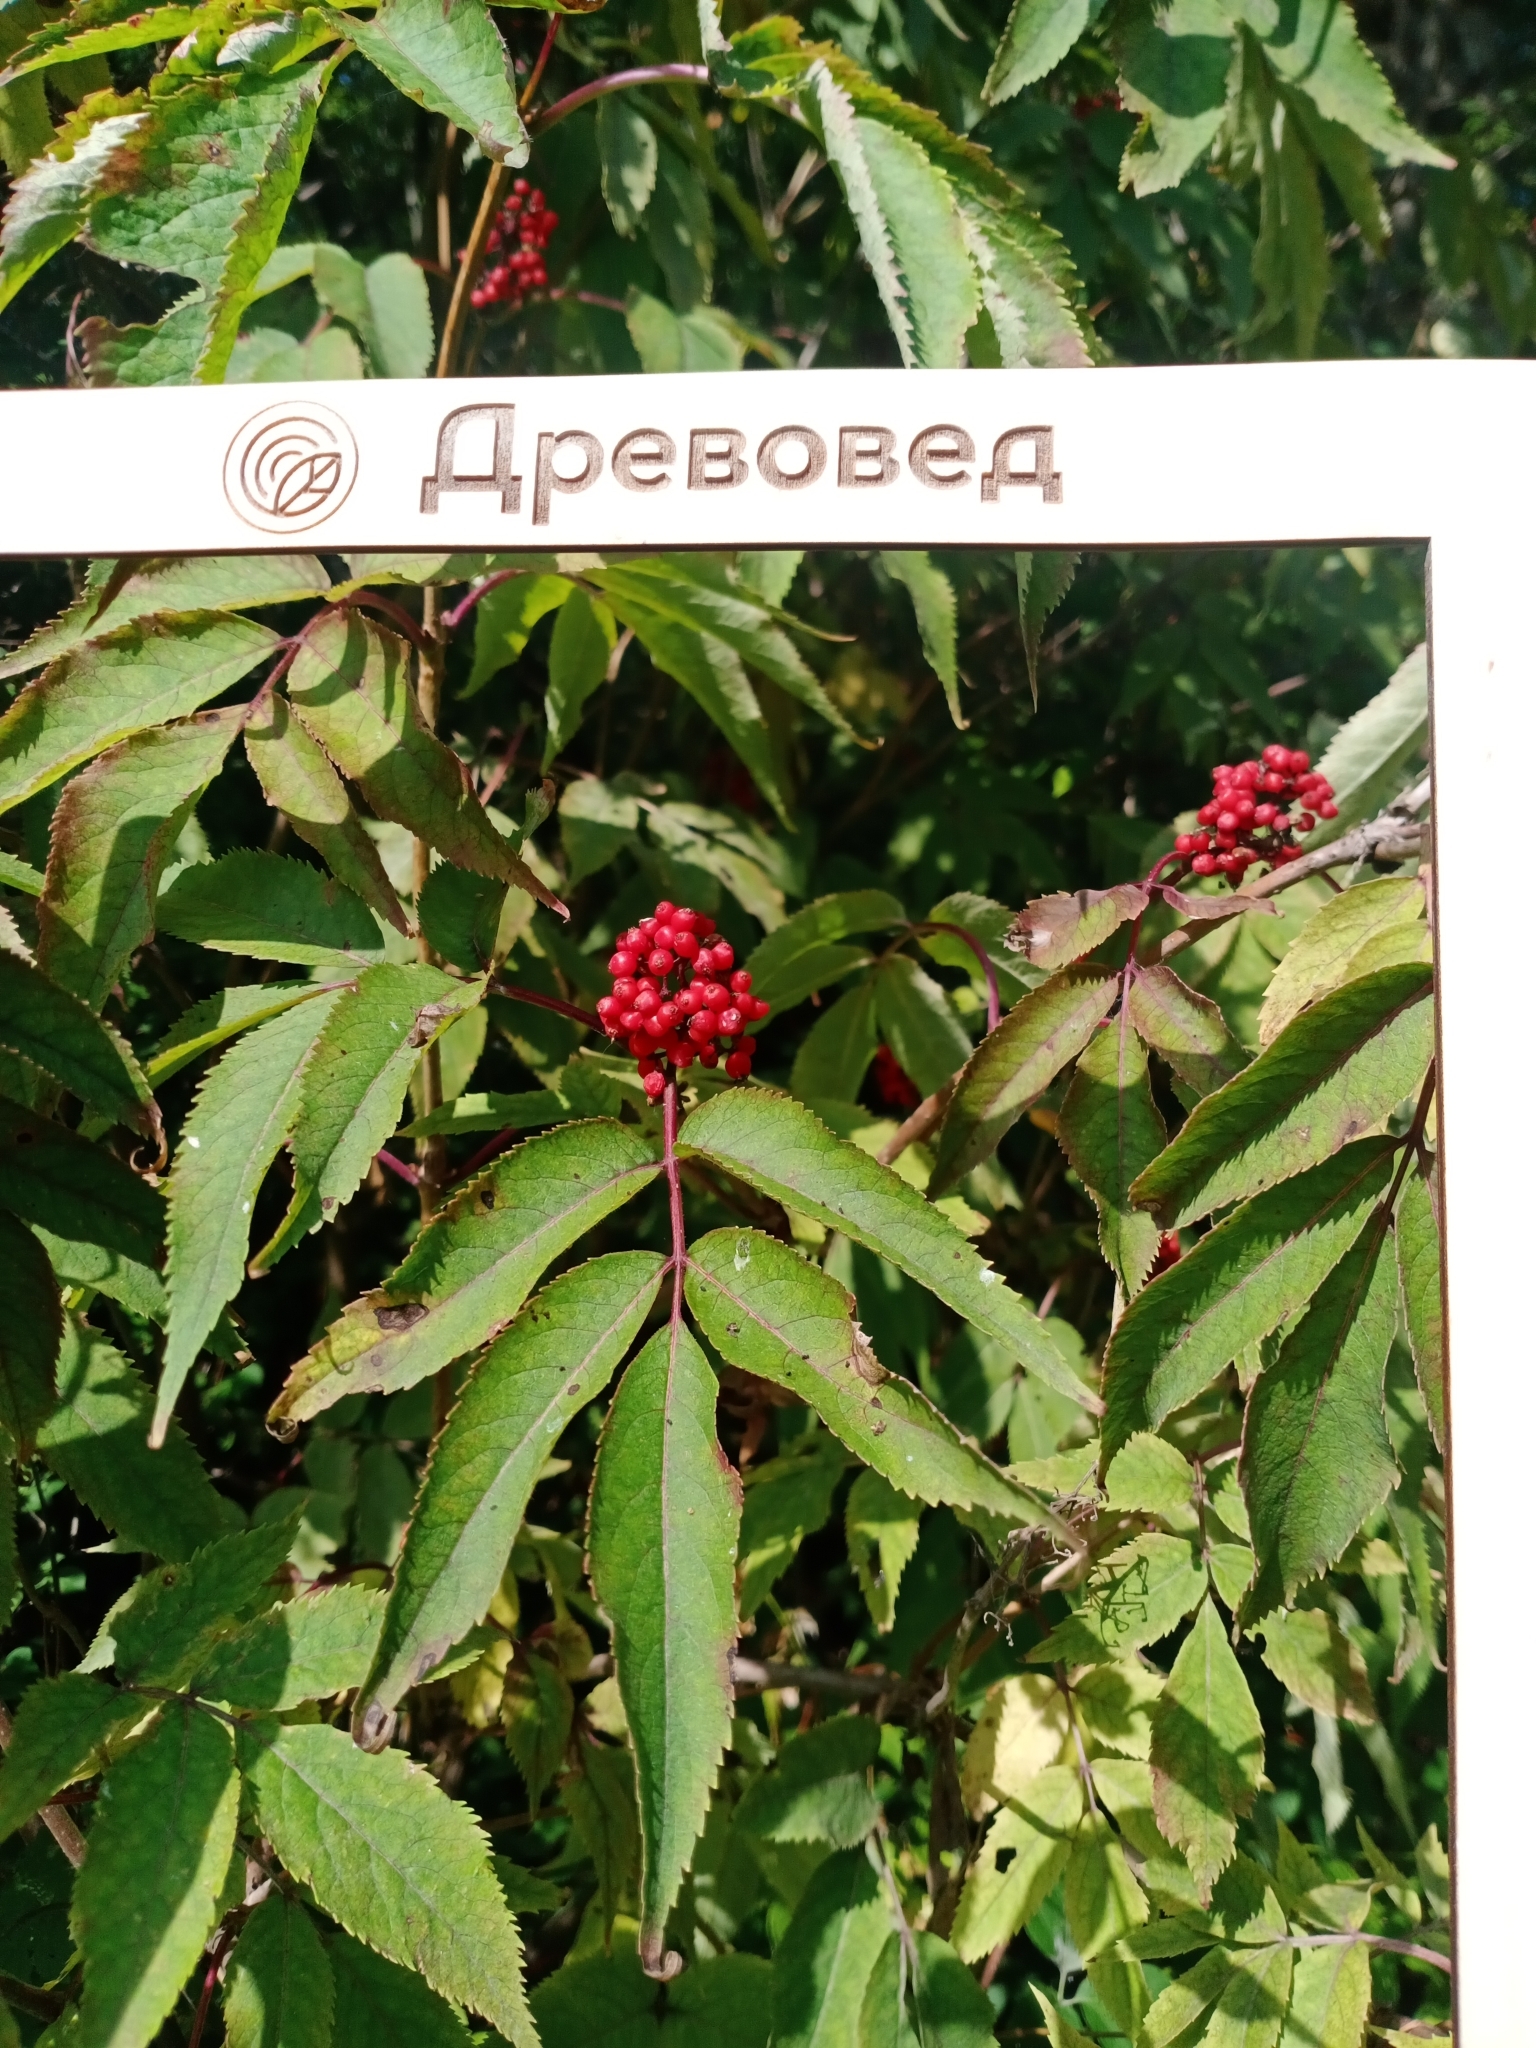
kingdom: Plantae
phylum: Tracheophyta
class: Magnoliopsida
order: Dipsacales
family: Viburnaceae
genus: Sambucus
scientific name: Sambucus racemosa
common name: Red-berried elder
